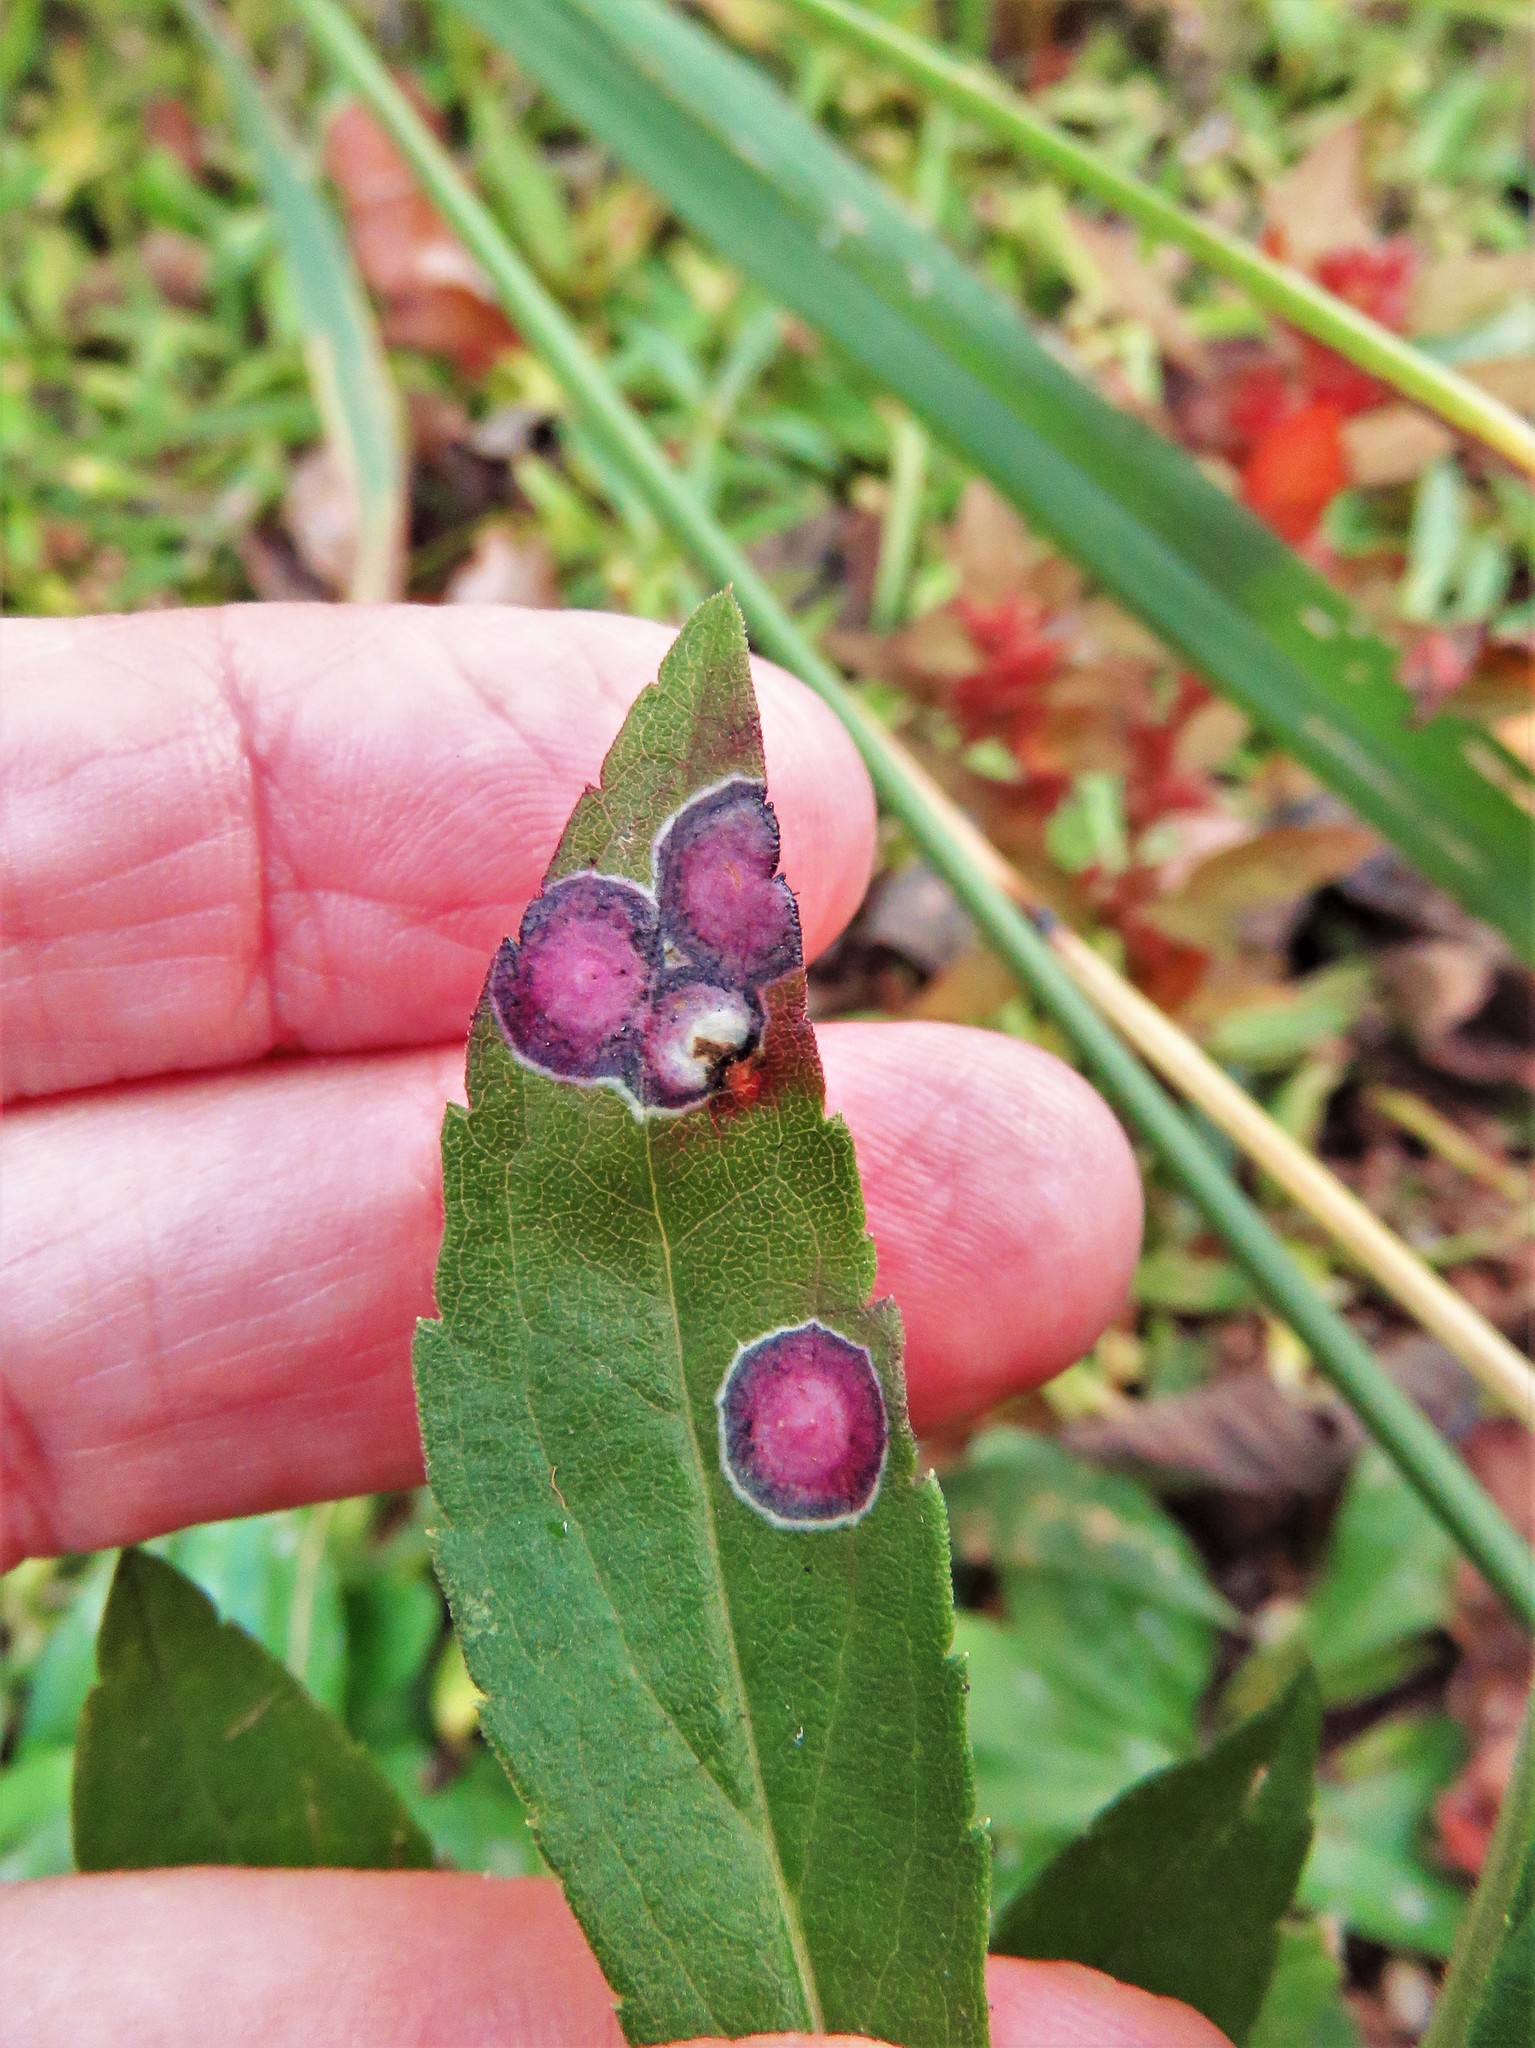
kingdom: Animalia
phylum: Arthropoda
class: Insecta
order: Diptera
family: Cecidomyiidae
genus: Asteromyia
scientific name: Asteromyia carbonifera
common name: Carbonifera goldenrod gall midge
